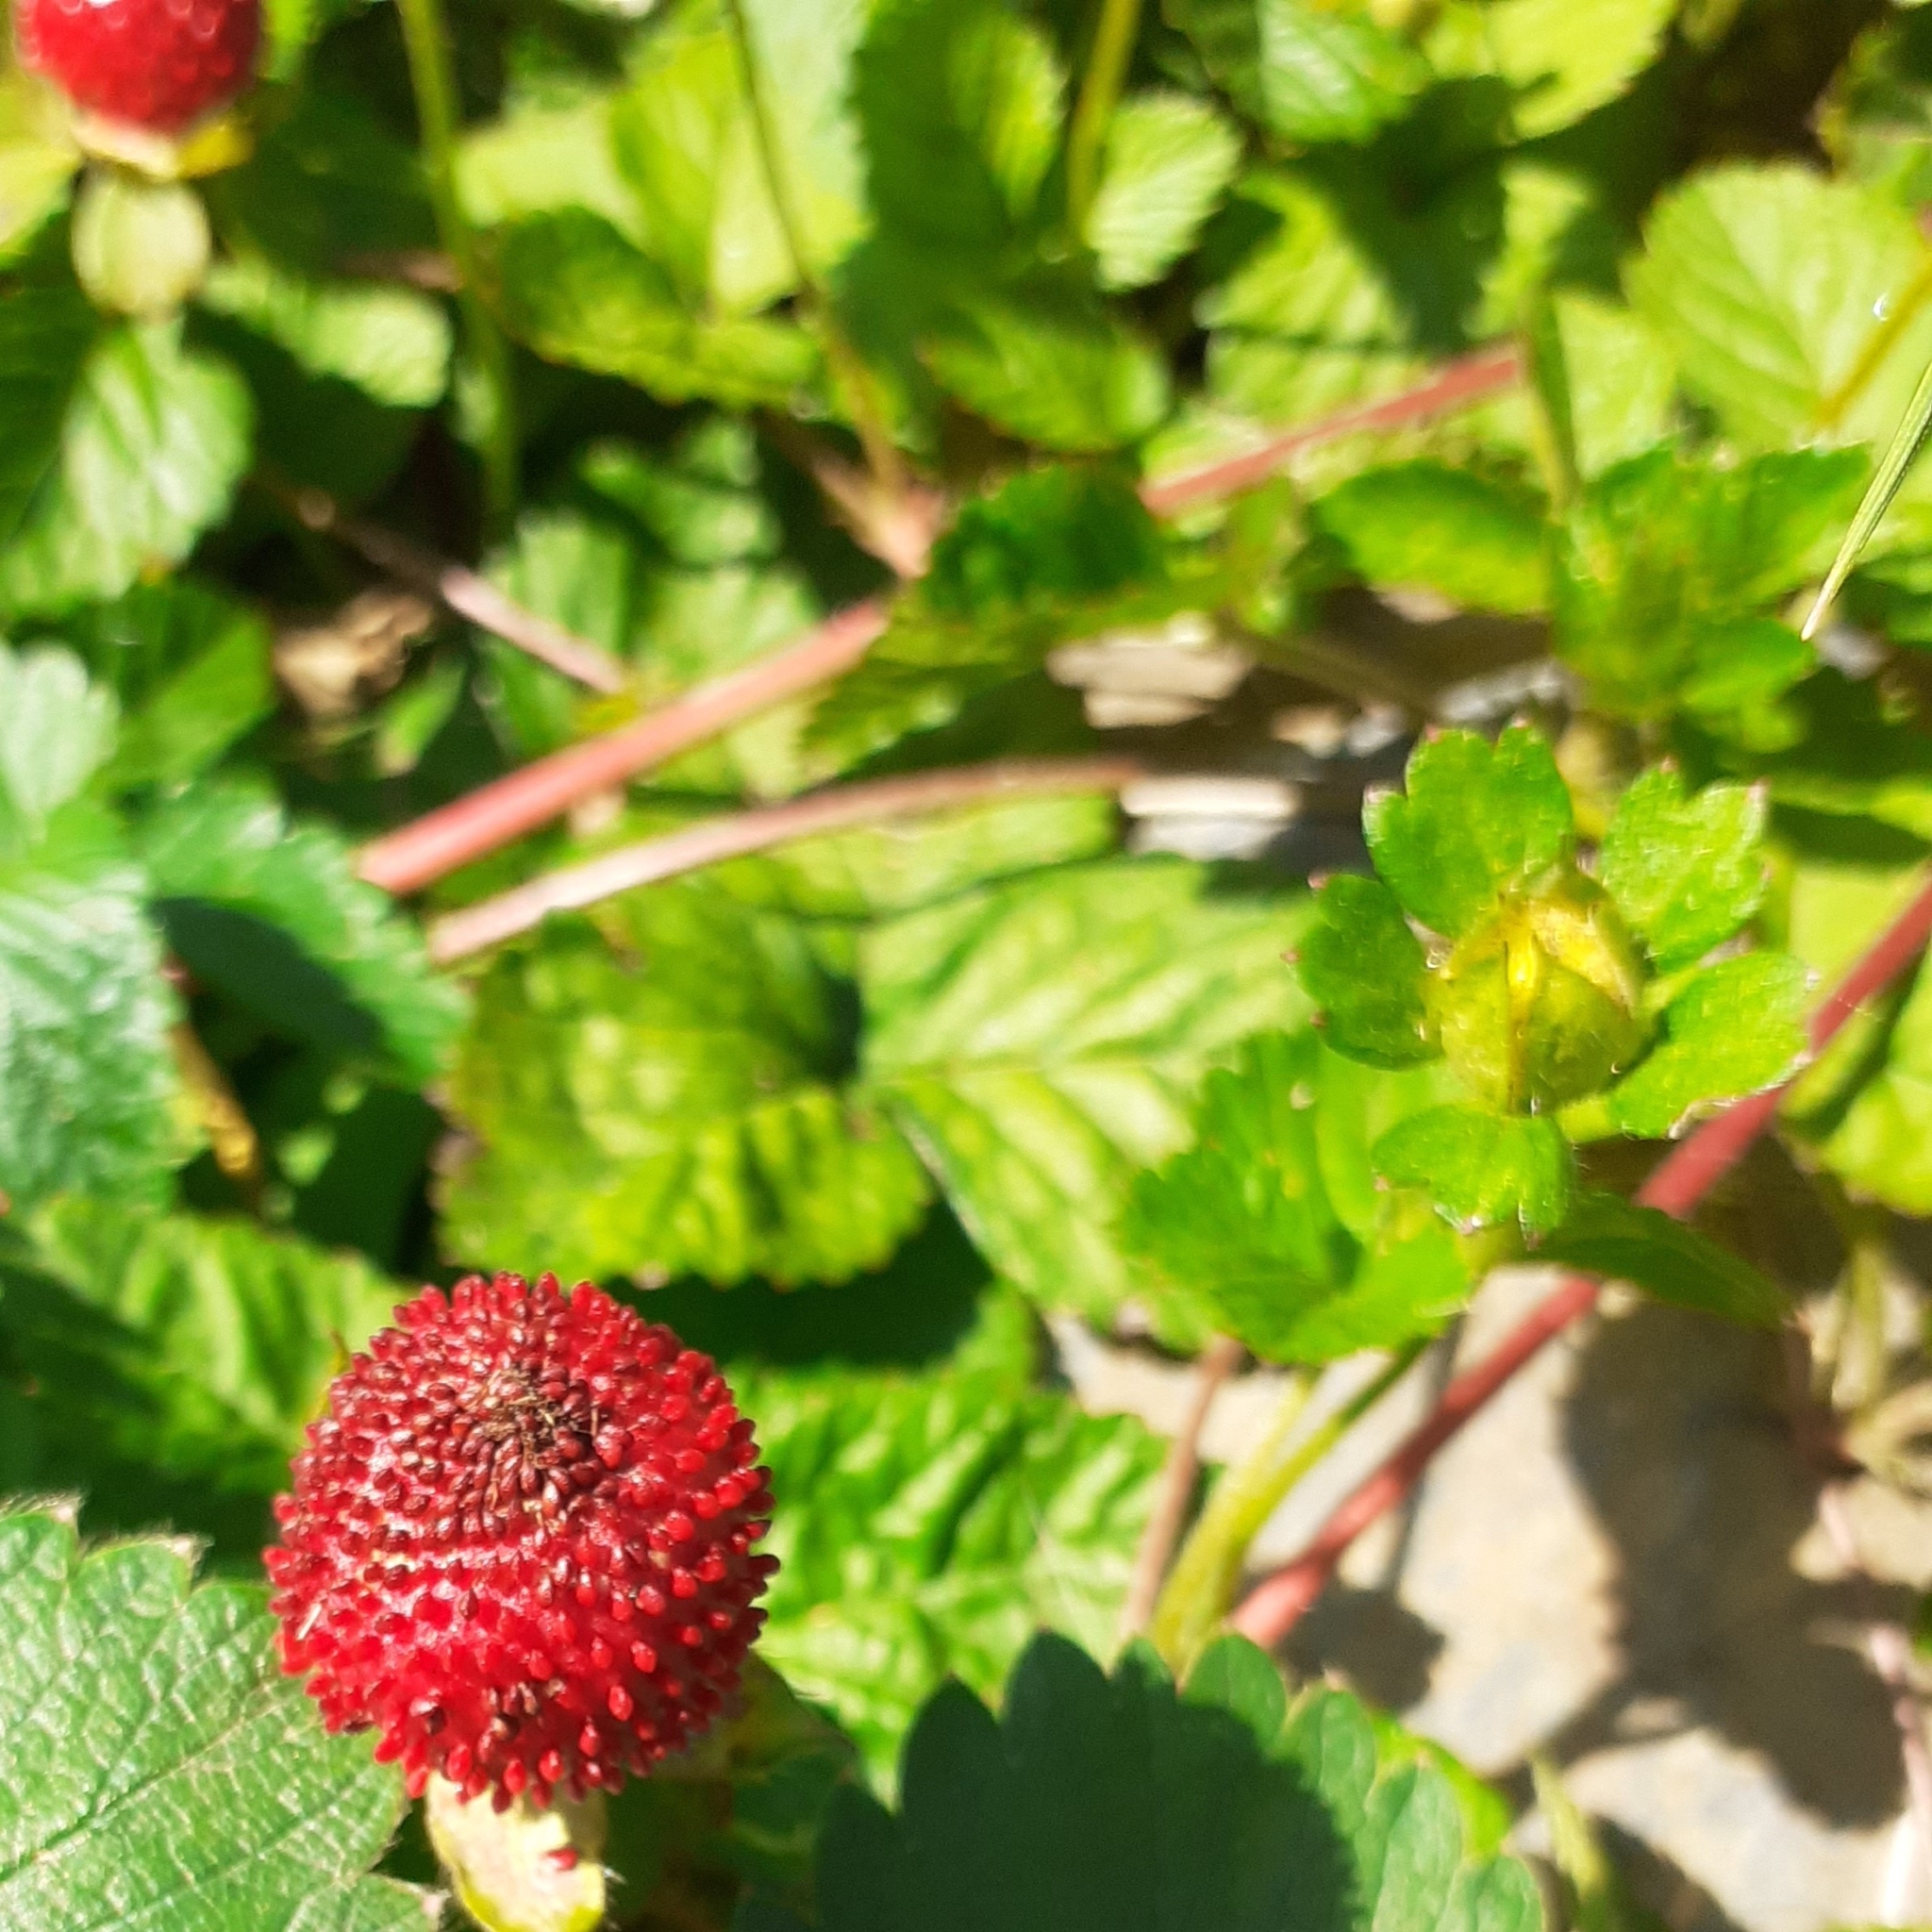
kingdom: Plantae
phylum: Tracheophyta
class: Magnoliopsida
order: Rosales
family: Rosaceae
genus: Potentilla
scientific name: Potentilla indica
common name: Yellow-flowered strawberry
